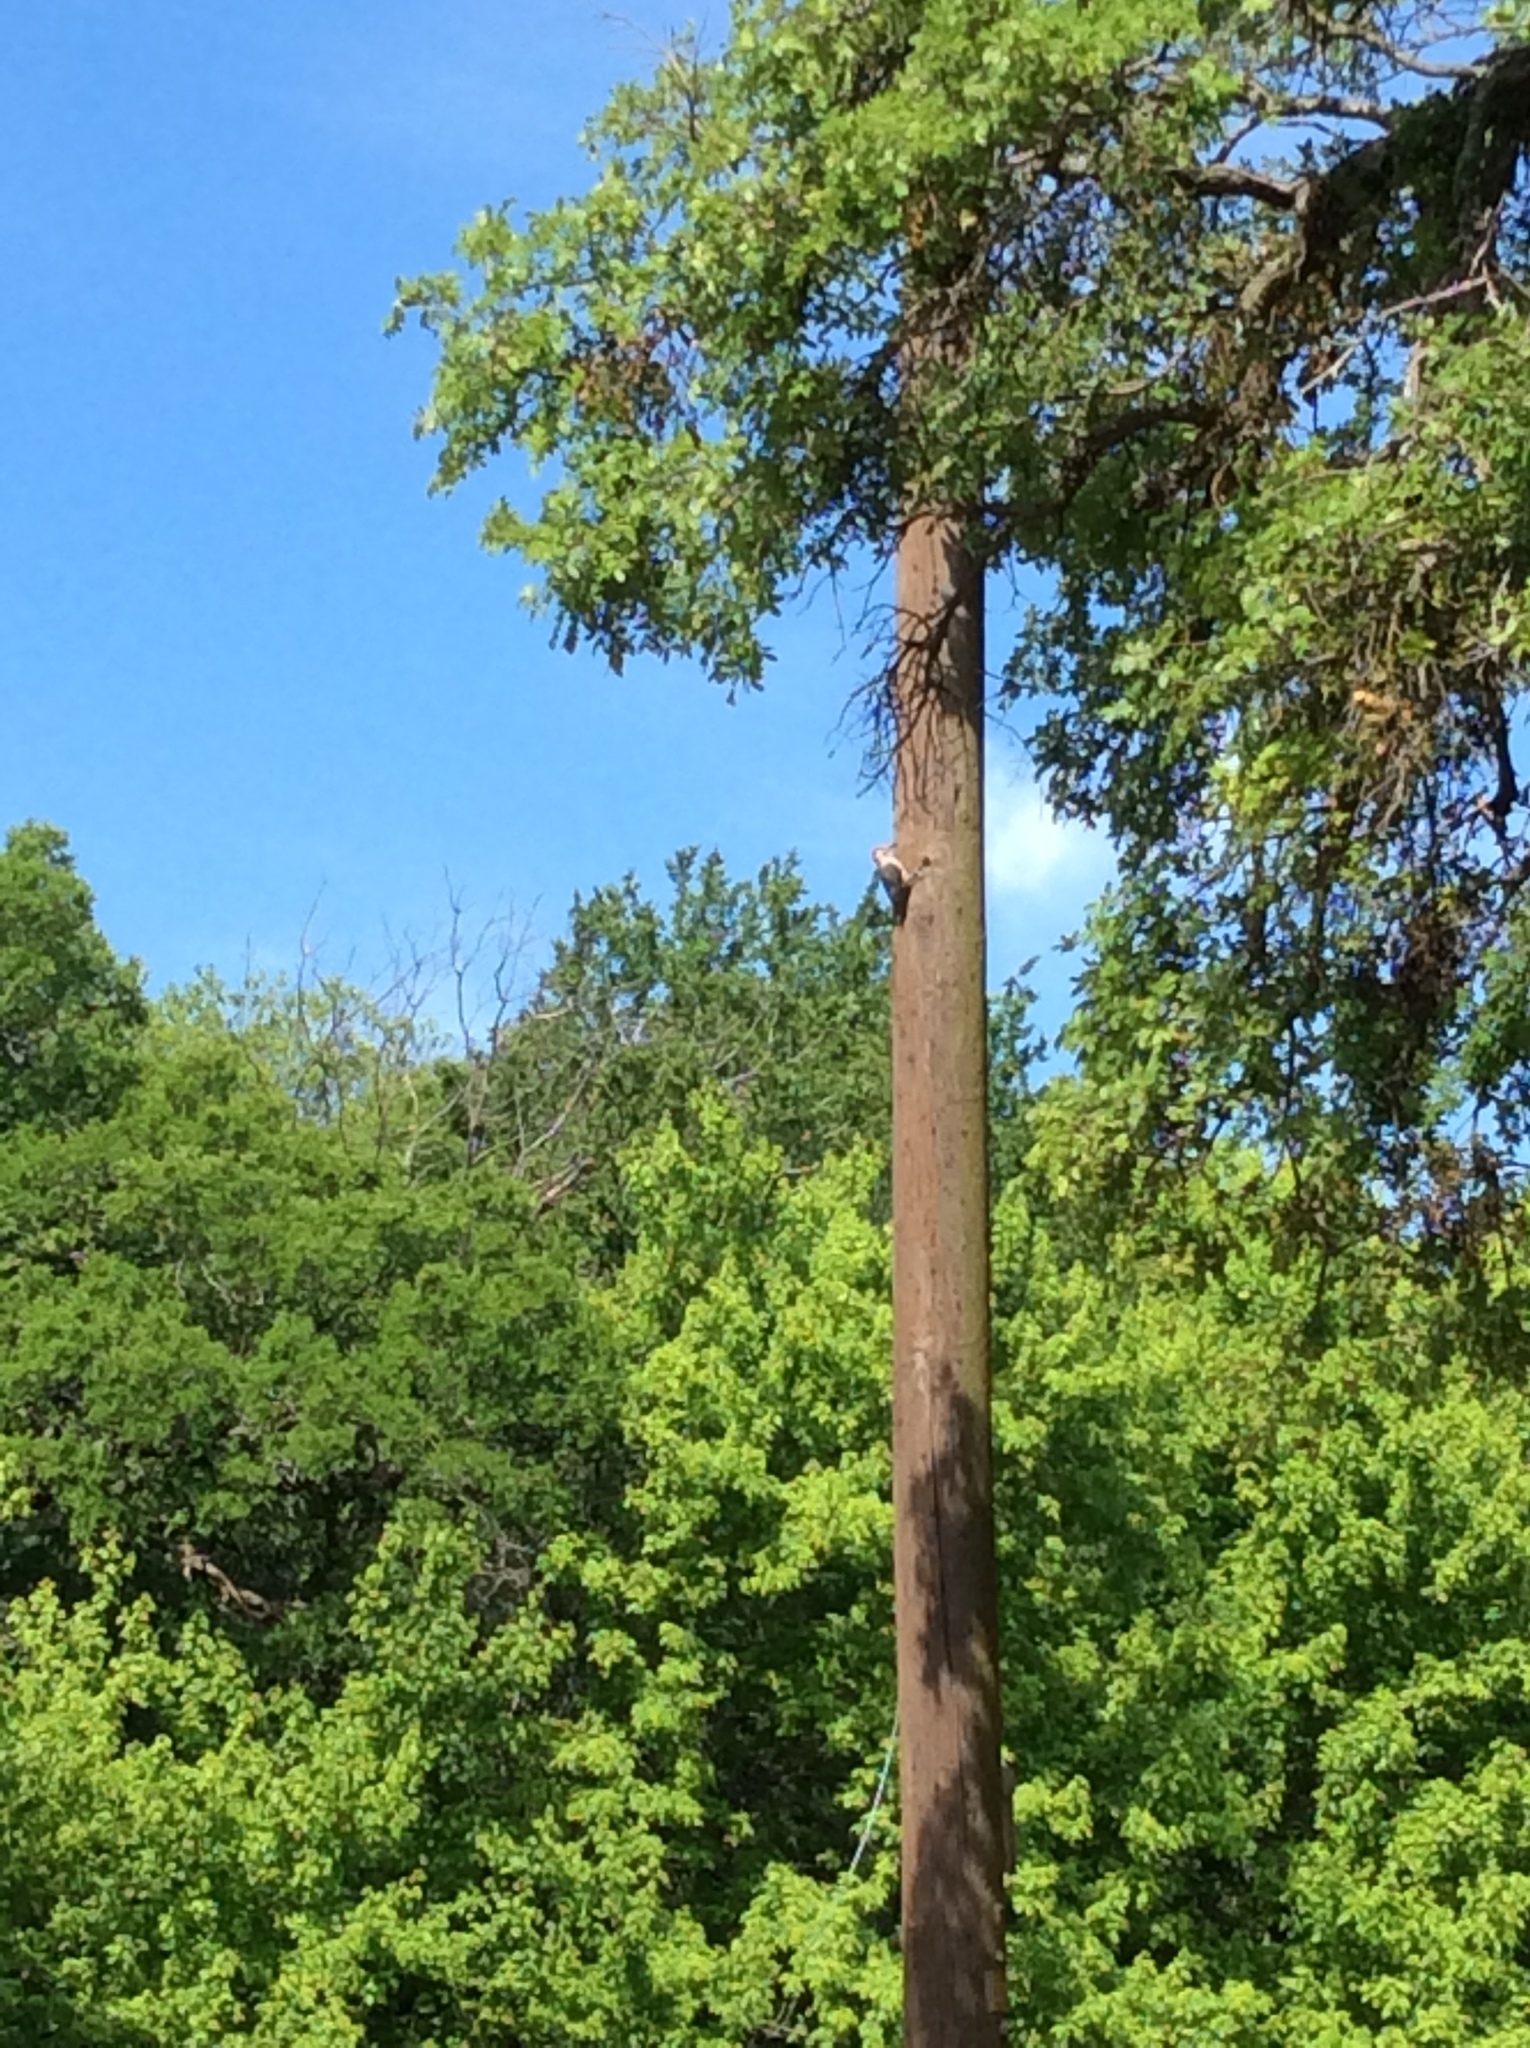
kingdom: Animalia
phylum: Chordata
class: Aves
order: Piciformes
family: Picidae
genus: Melanerpes
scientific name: Melanerpes carolinus
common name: Red-bellied woodpecker
